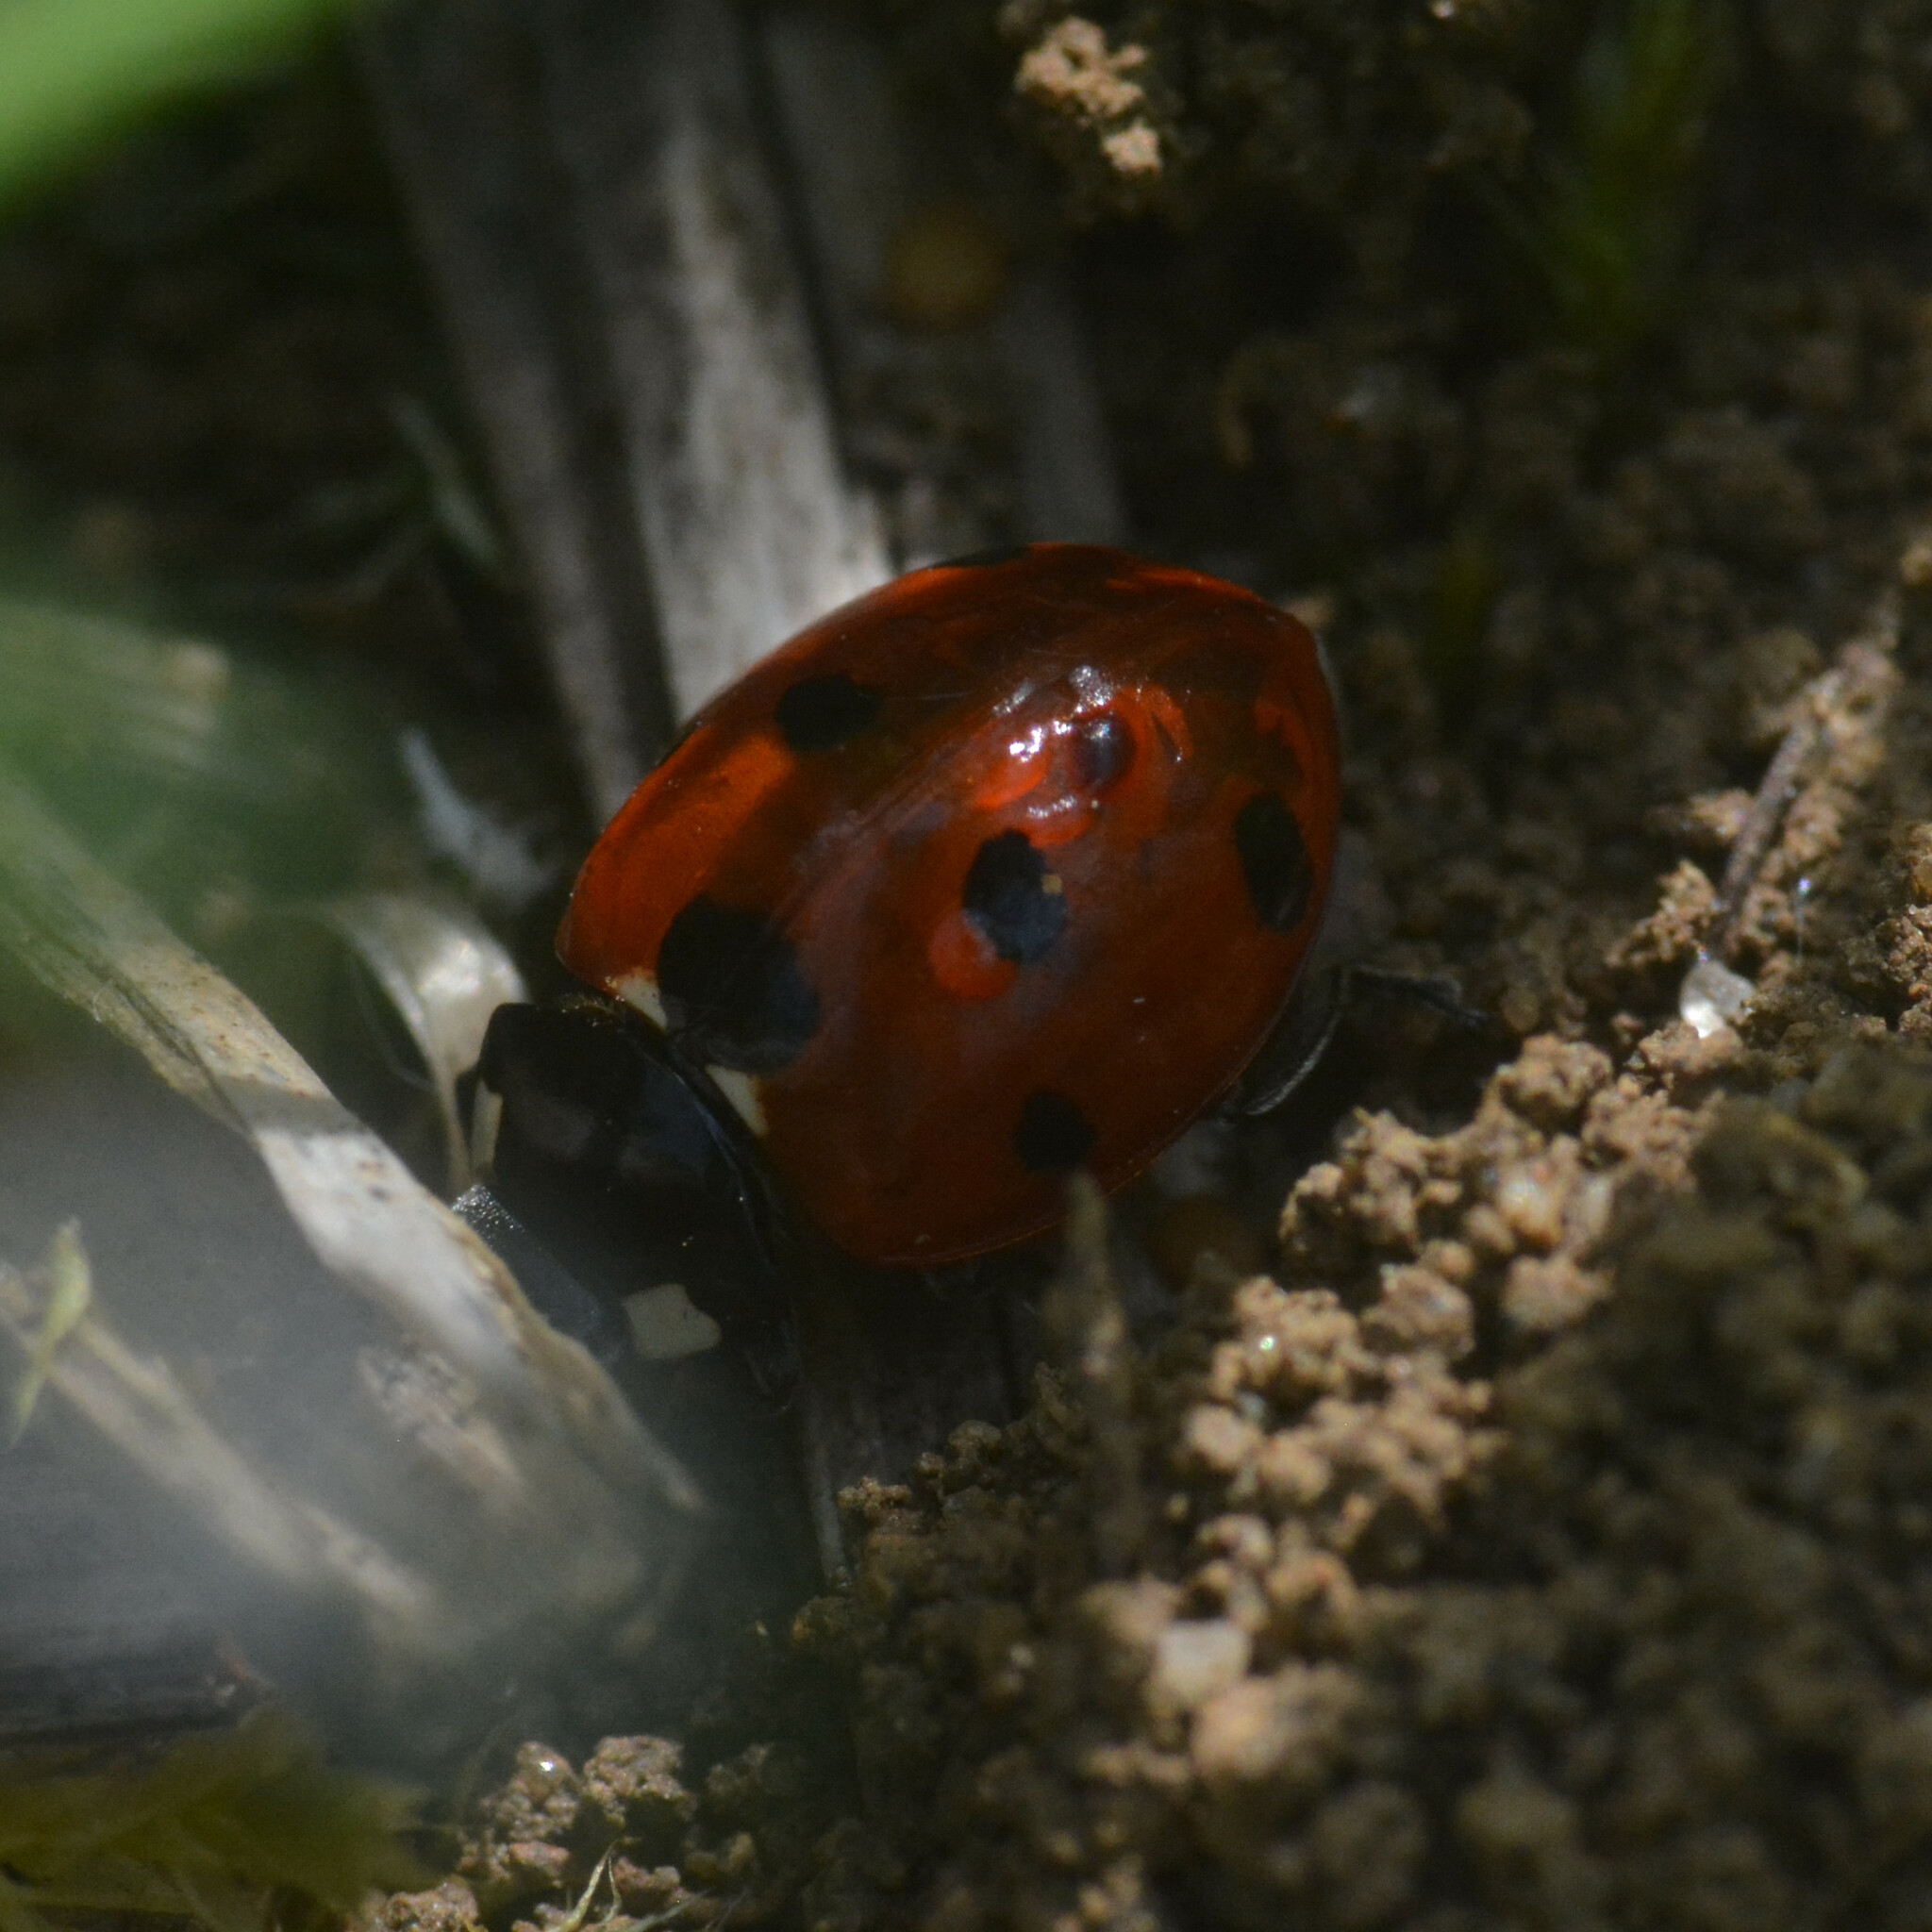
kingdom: Animalia
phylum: Arthropoda
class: Insecta
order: Coleoptera
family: Coccinellidae
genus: Coccinella
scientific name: Coccinella septempunctata
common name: Sevenspotted lady beetle
